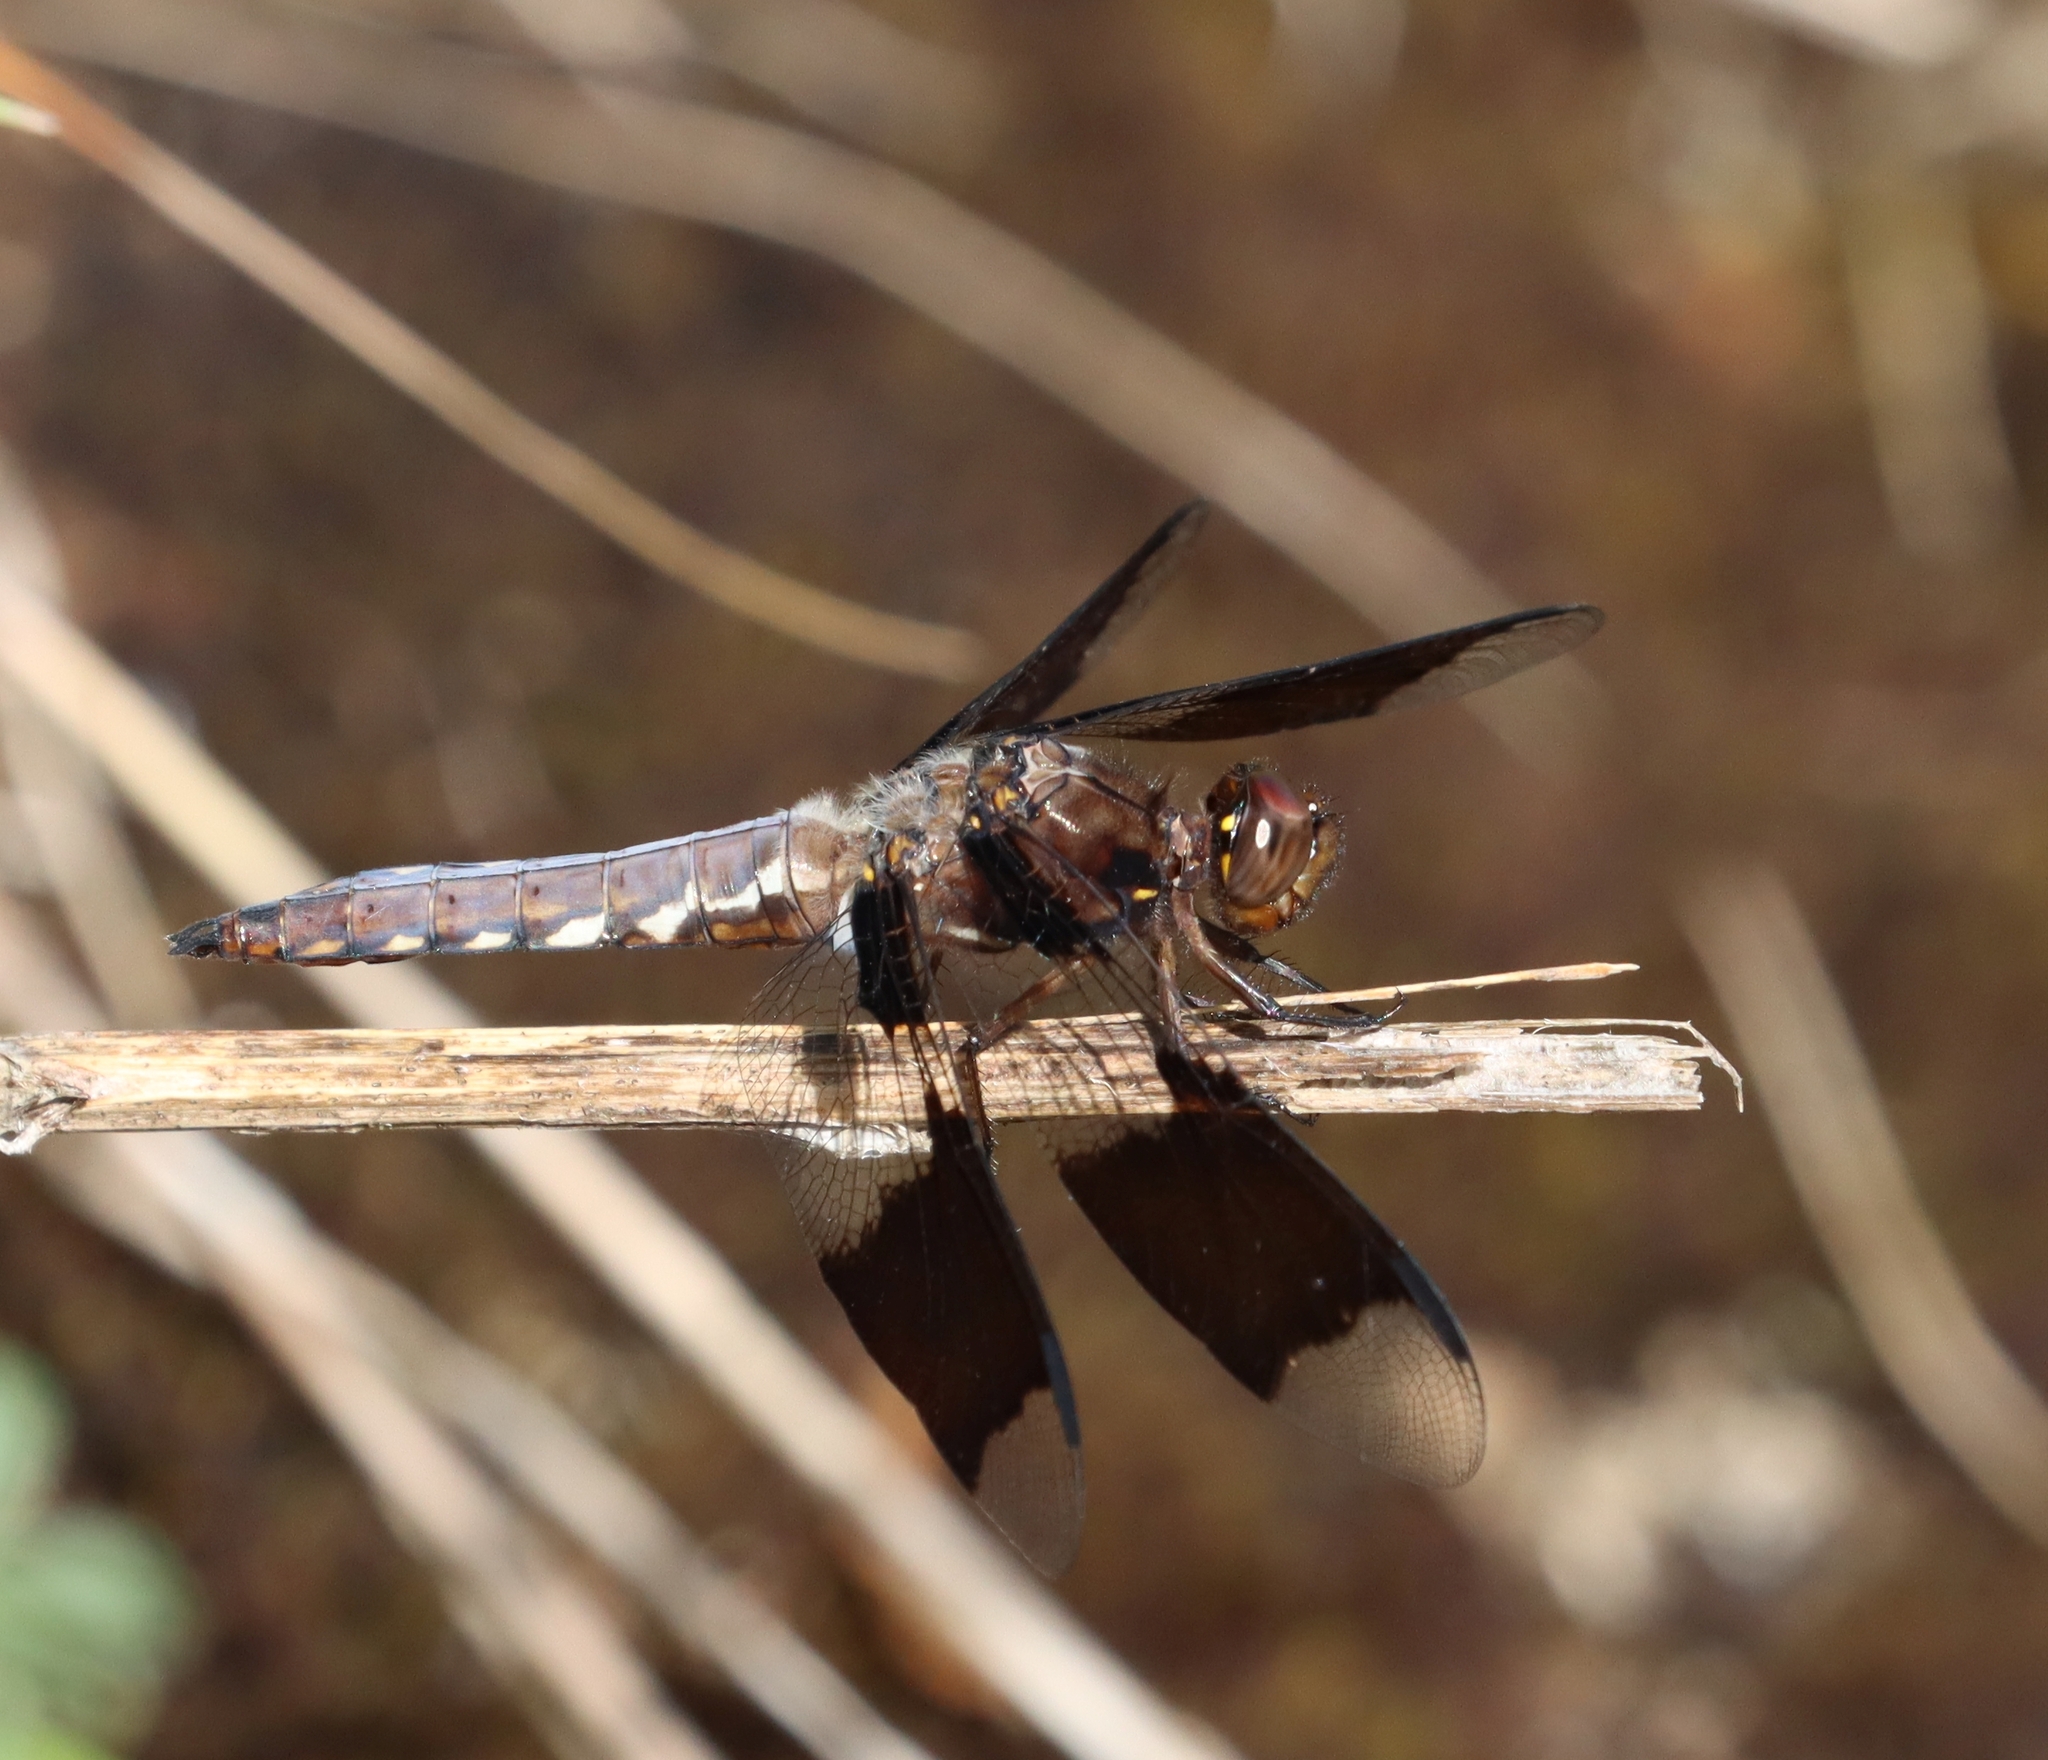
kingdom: Animalia
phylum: Arthropoda
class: Insecta
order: Odonata
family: Libellulidae
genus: Plathemis
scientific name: Plathemis lydia
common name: Common whitetail
